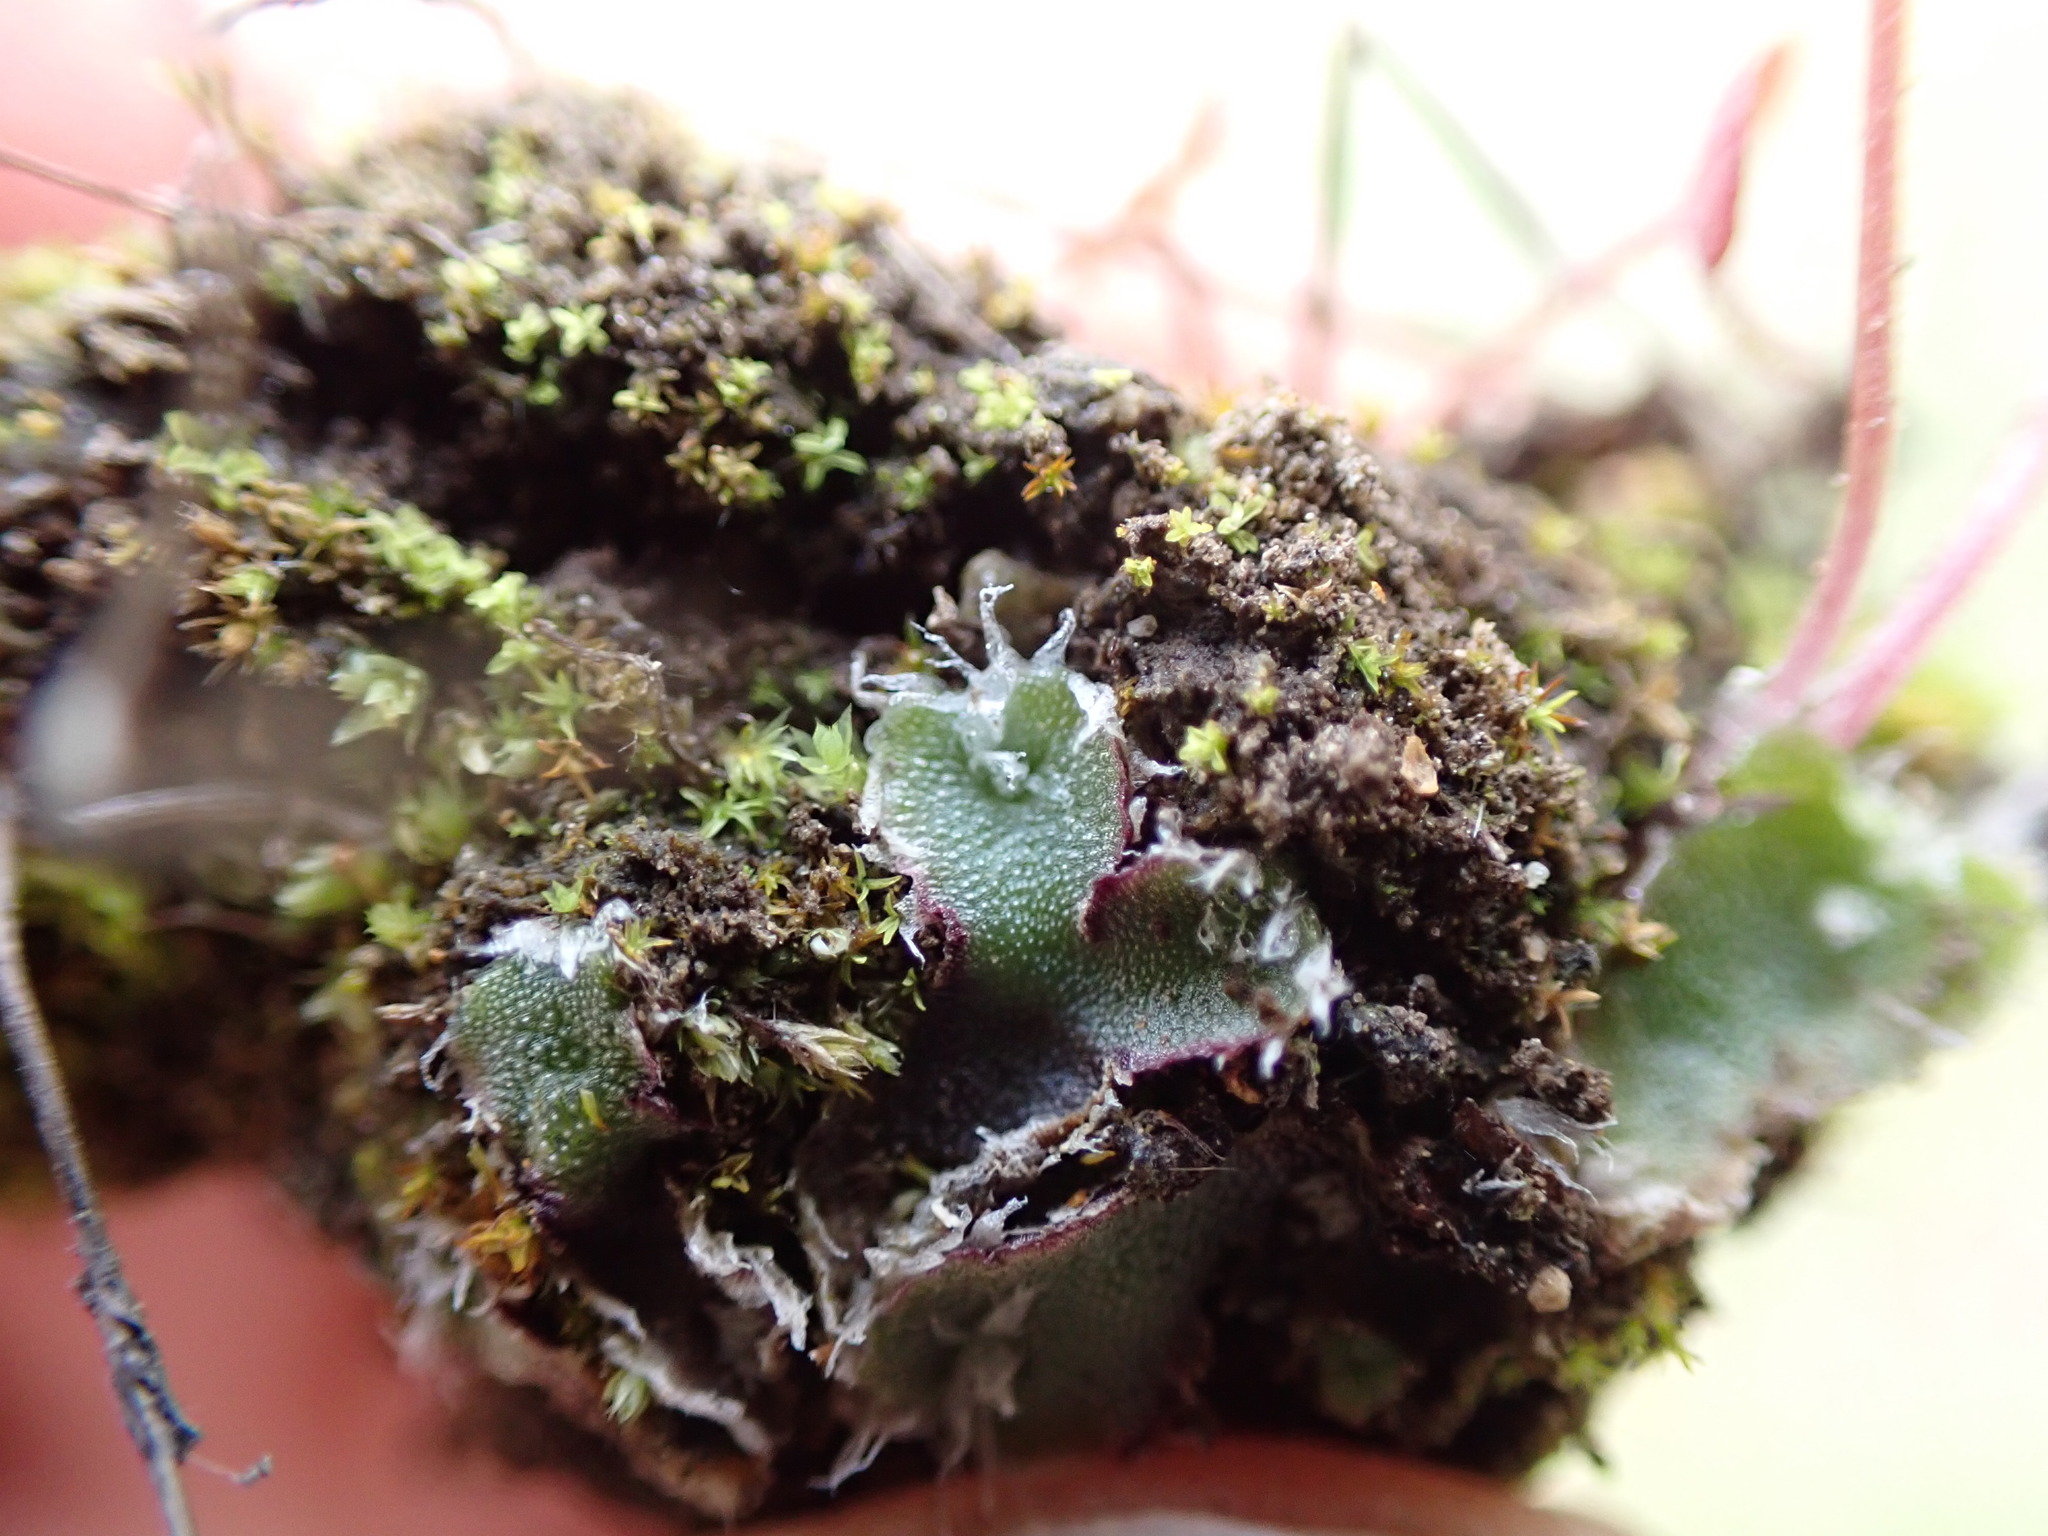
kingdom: Plantae
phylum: Marchantiophyta
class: Marchantiopsida
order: Marchantiales
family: Cleveaceae
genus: Clevea
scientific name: Clevea hyalina
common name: Hyaline liverwort
